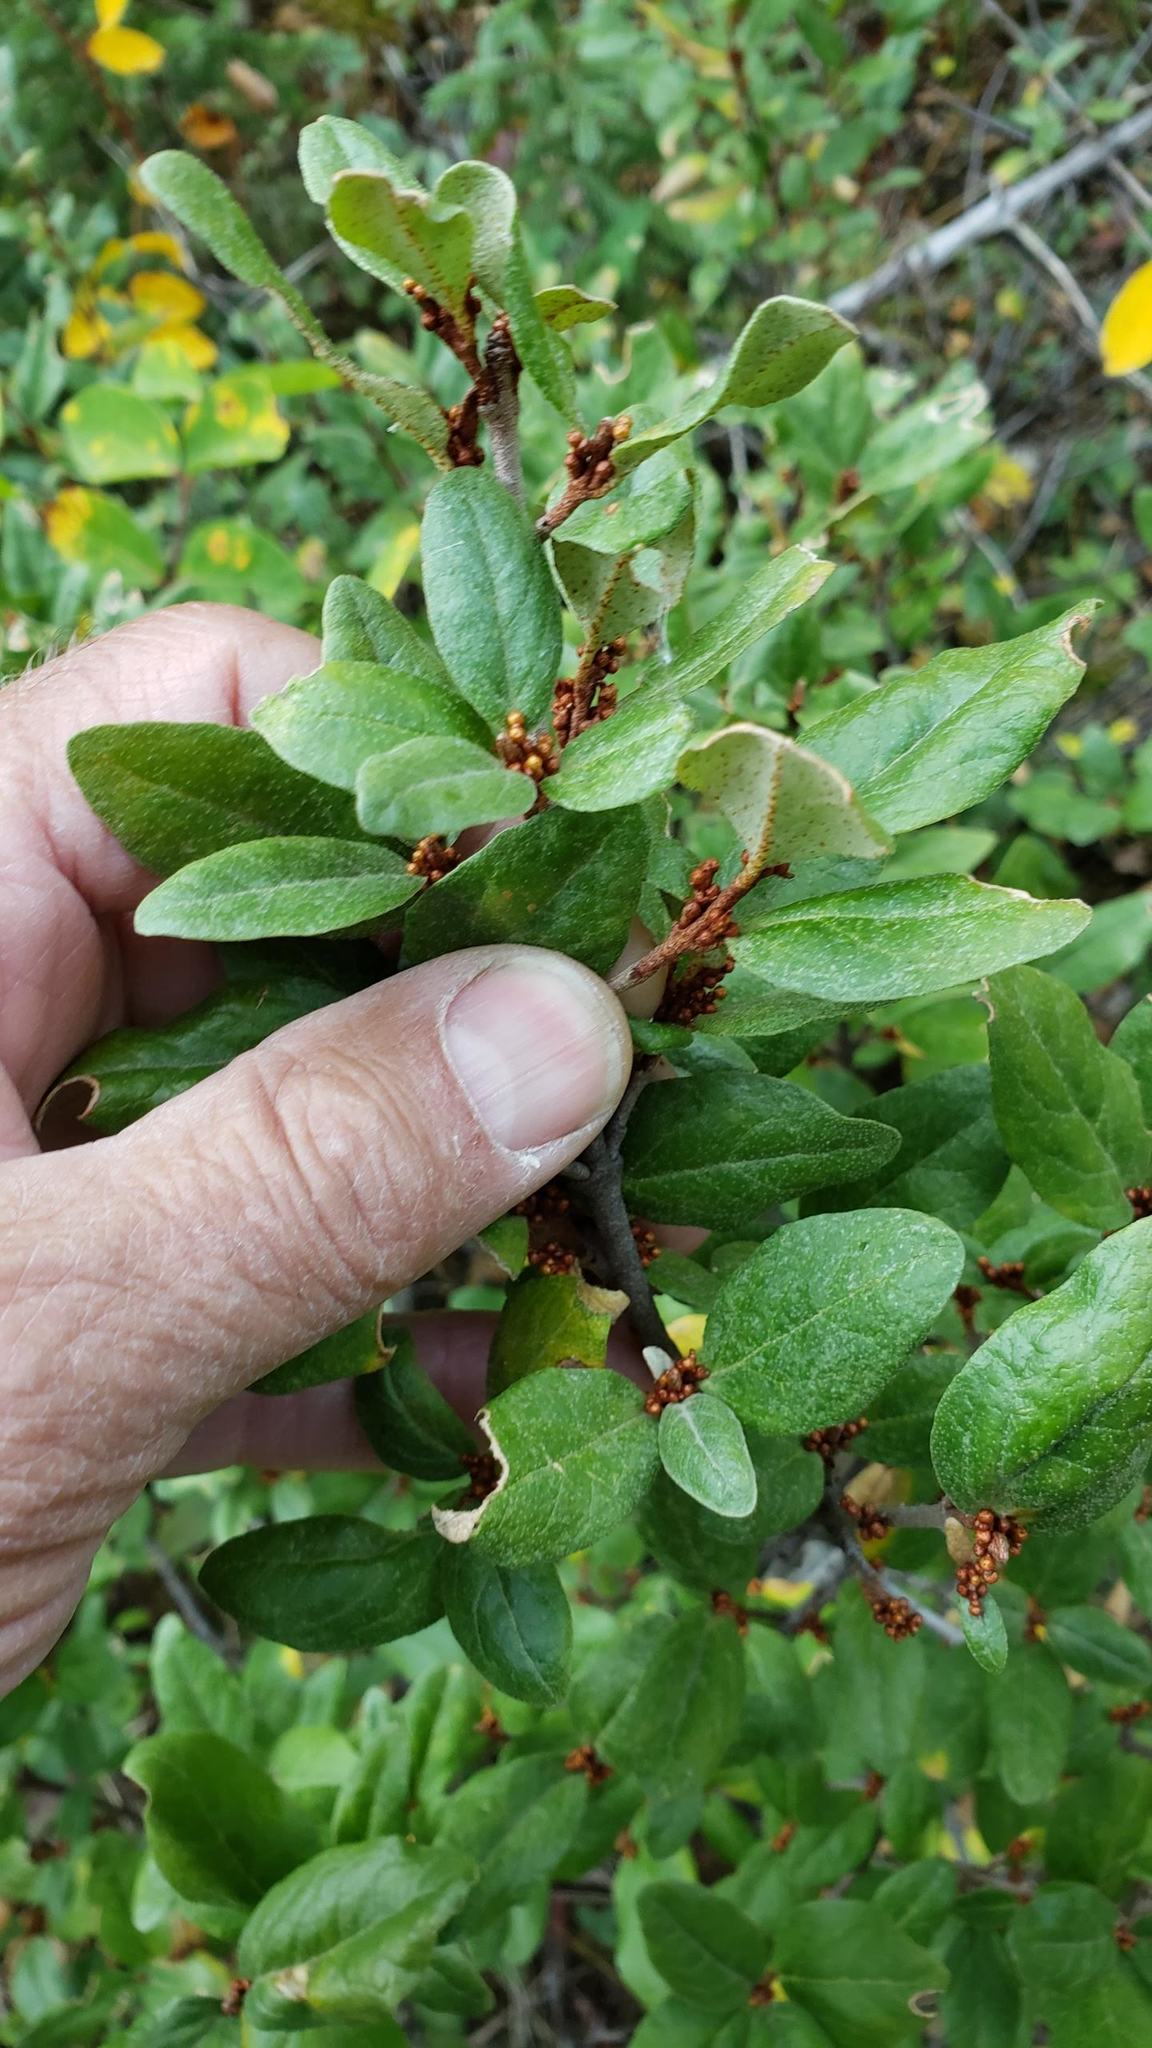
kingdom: Plantae
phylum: Tracheophyta
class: Magnoliopsida
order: Rosales
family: Elaeagnaceae
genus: Shepherdia
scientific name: Shepherdia canadensis
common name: Soapberry
